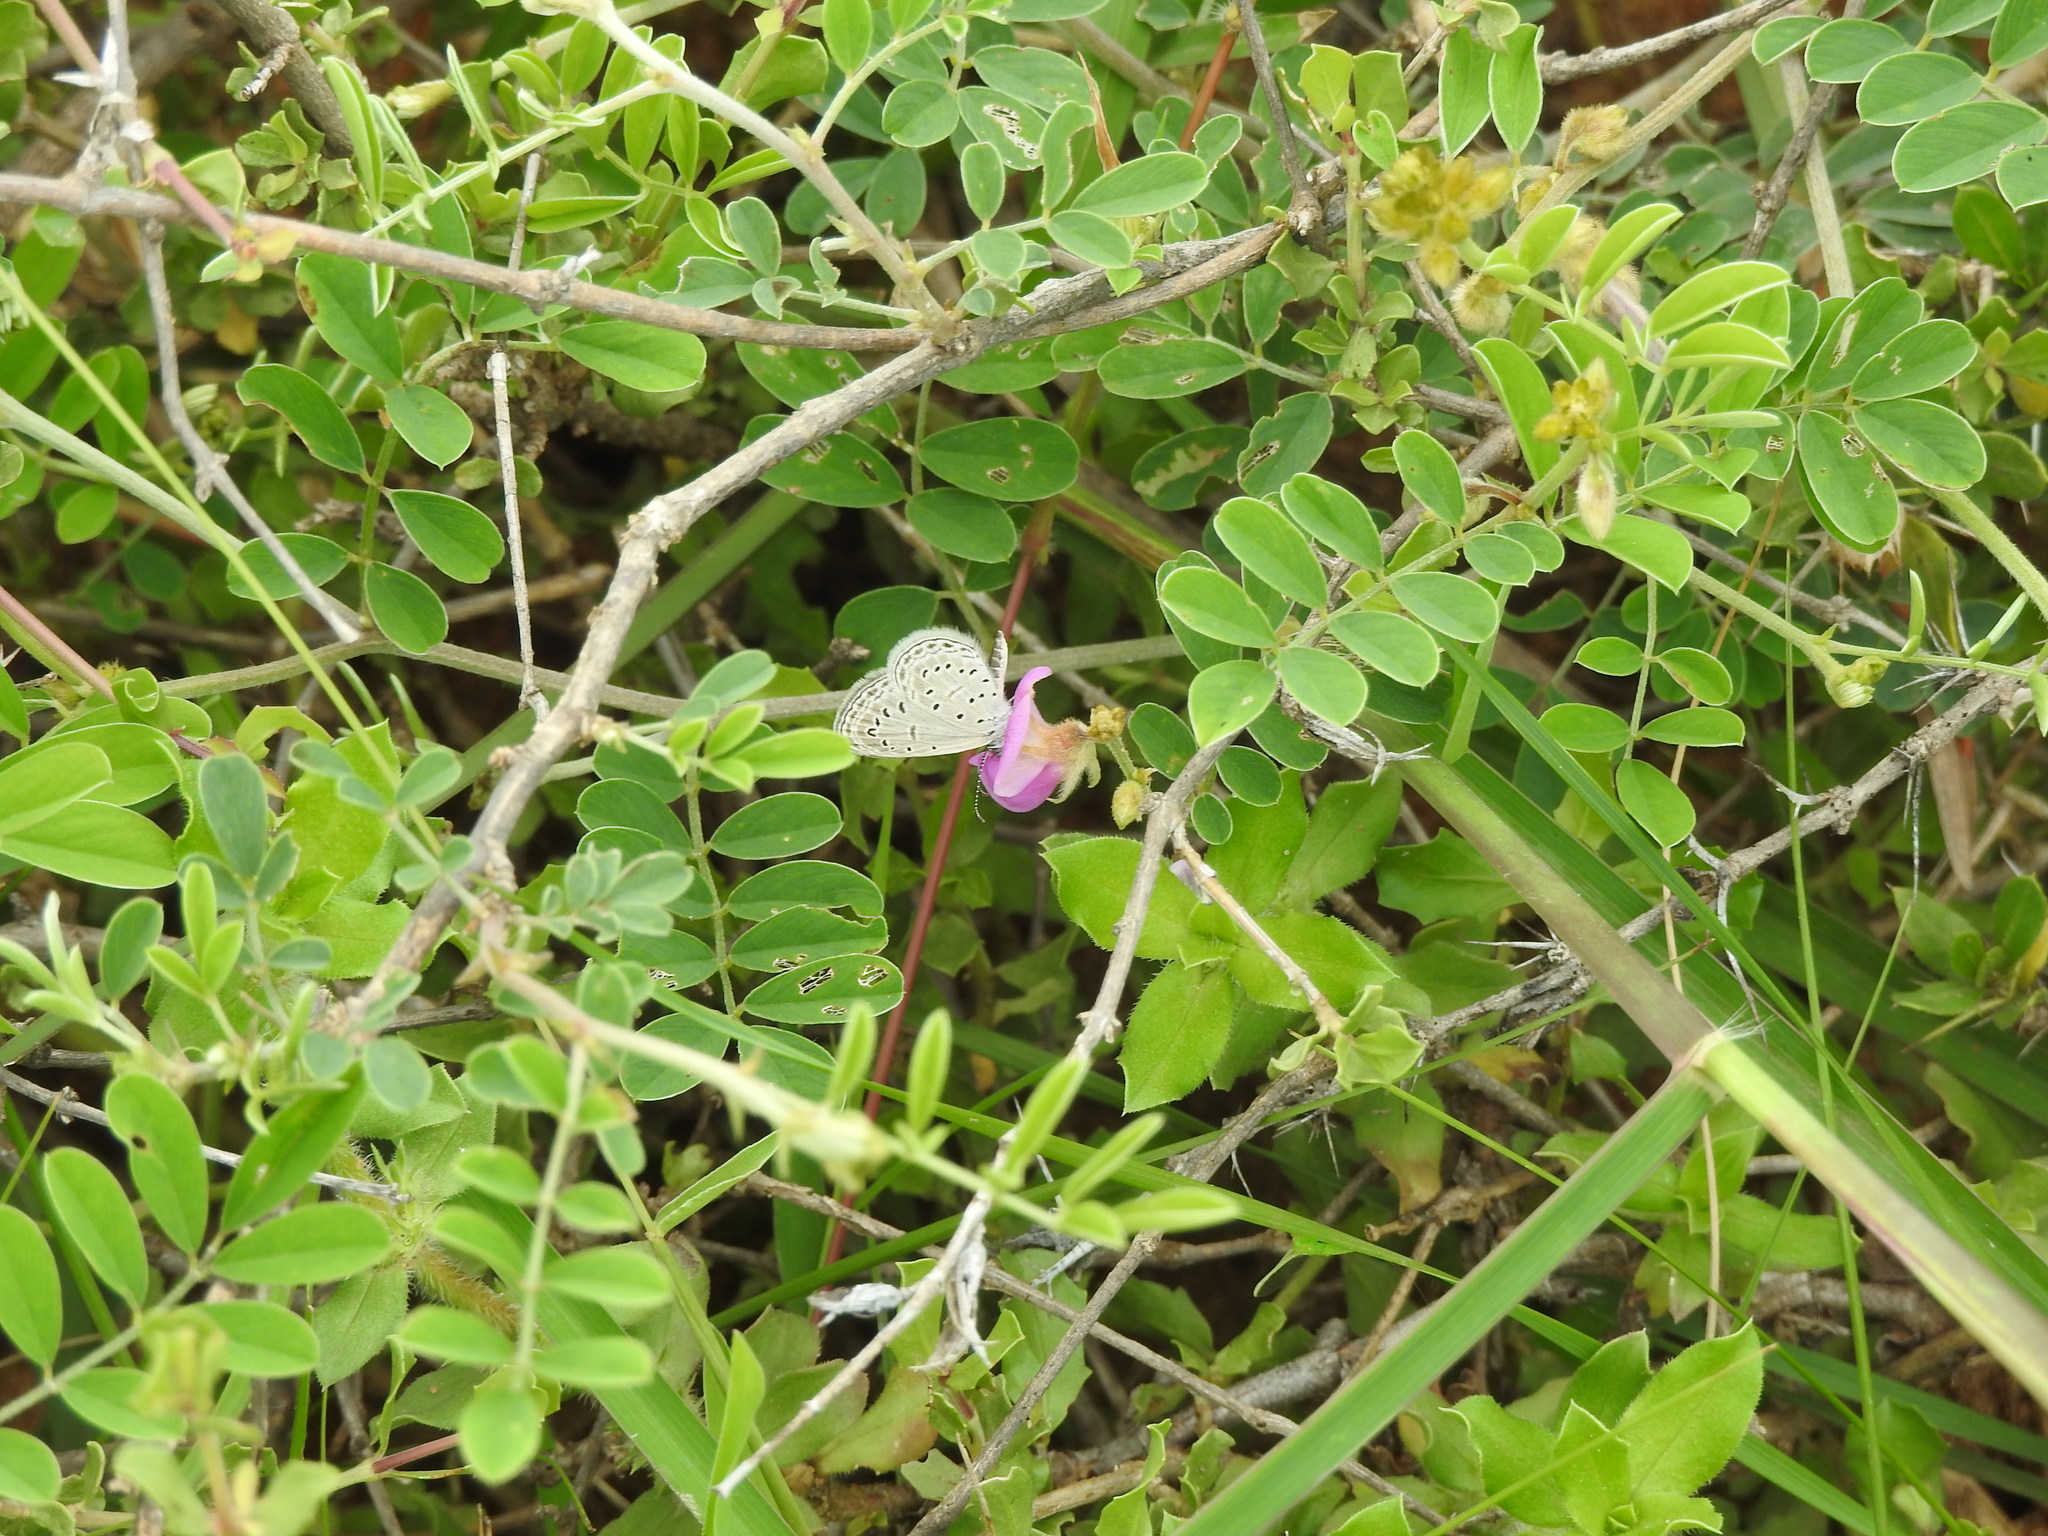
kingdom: Animalia
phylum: Arthropoda
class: Insecta
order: Lepidoptera
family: Lycaenidae
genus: Zizula
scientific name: Zizula hylax
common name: Gaika blue
